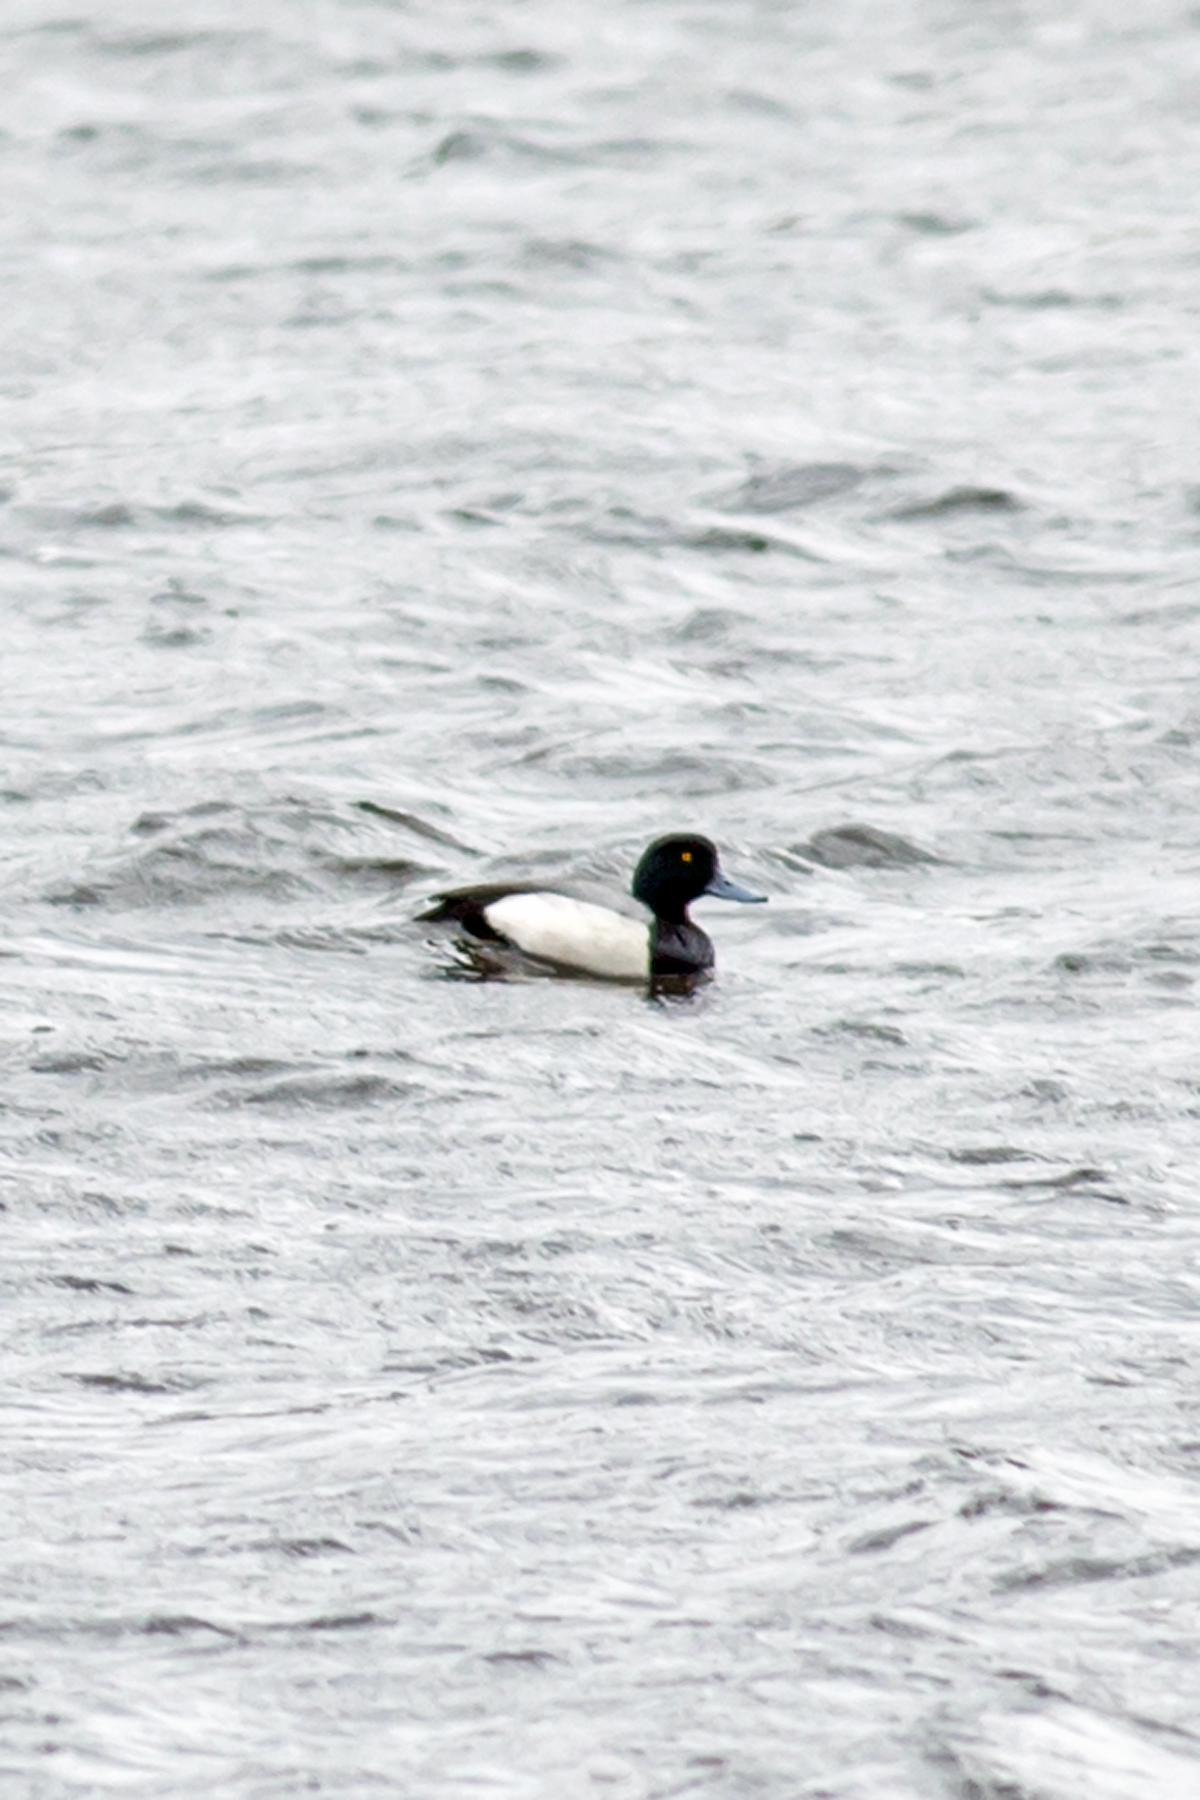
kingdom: Animalia
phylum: Chordata
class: Aves
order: Anseriformes
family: Anatidae
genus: Aythya
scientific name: Aythya marila
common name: Greater scaup
